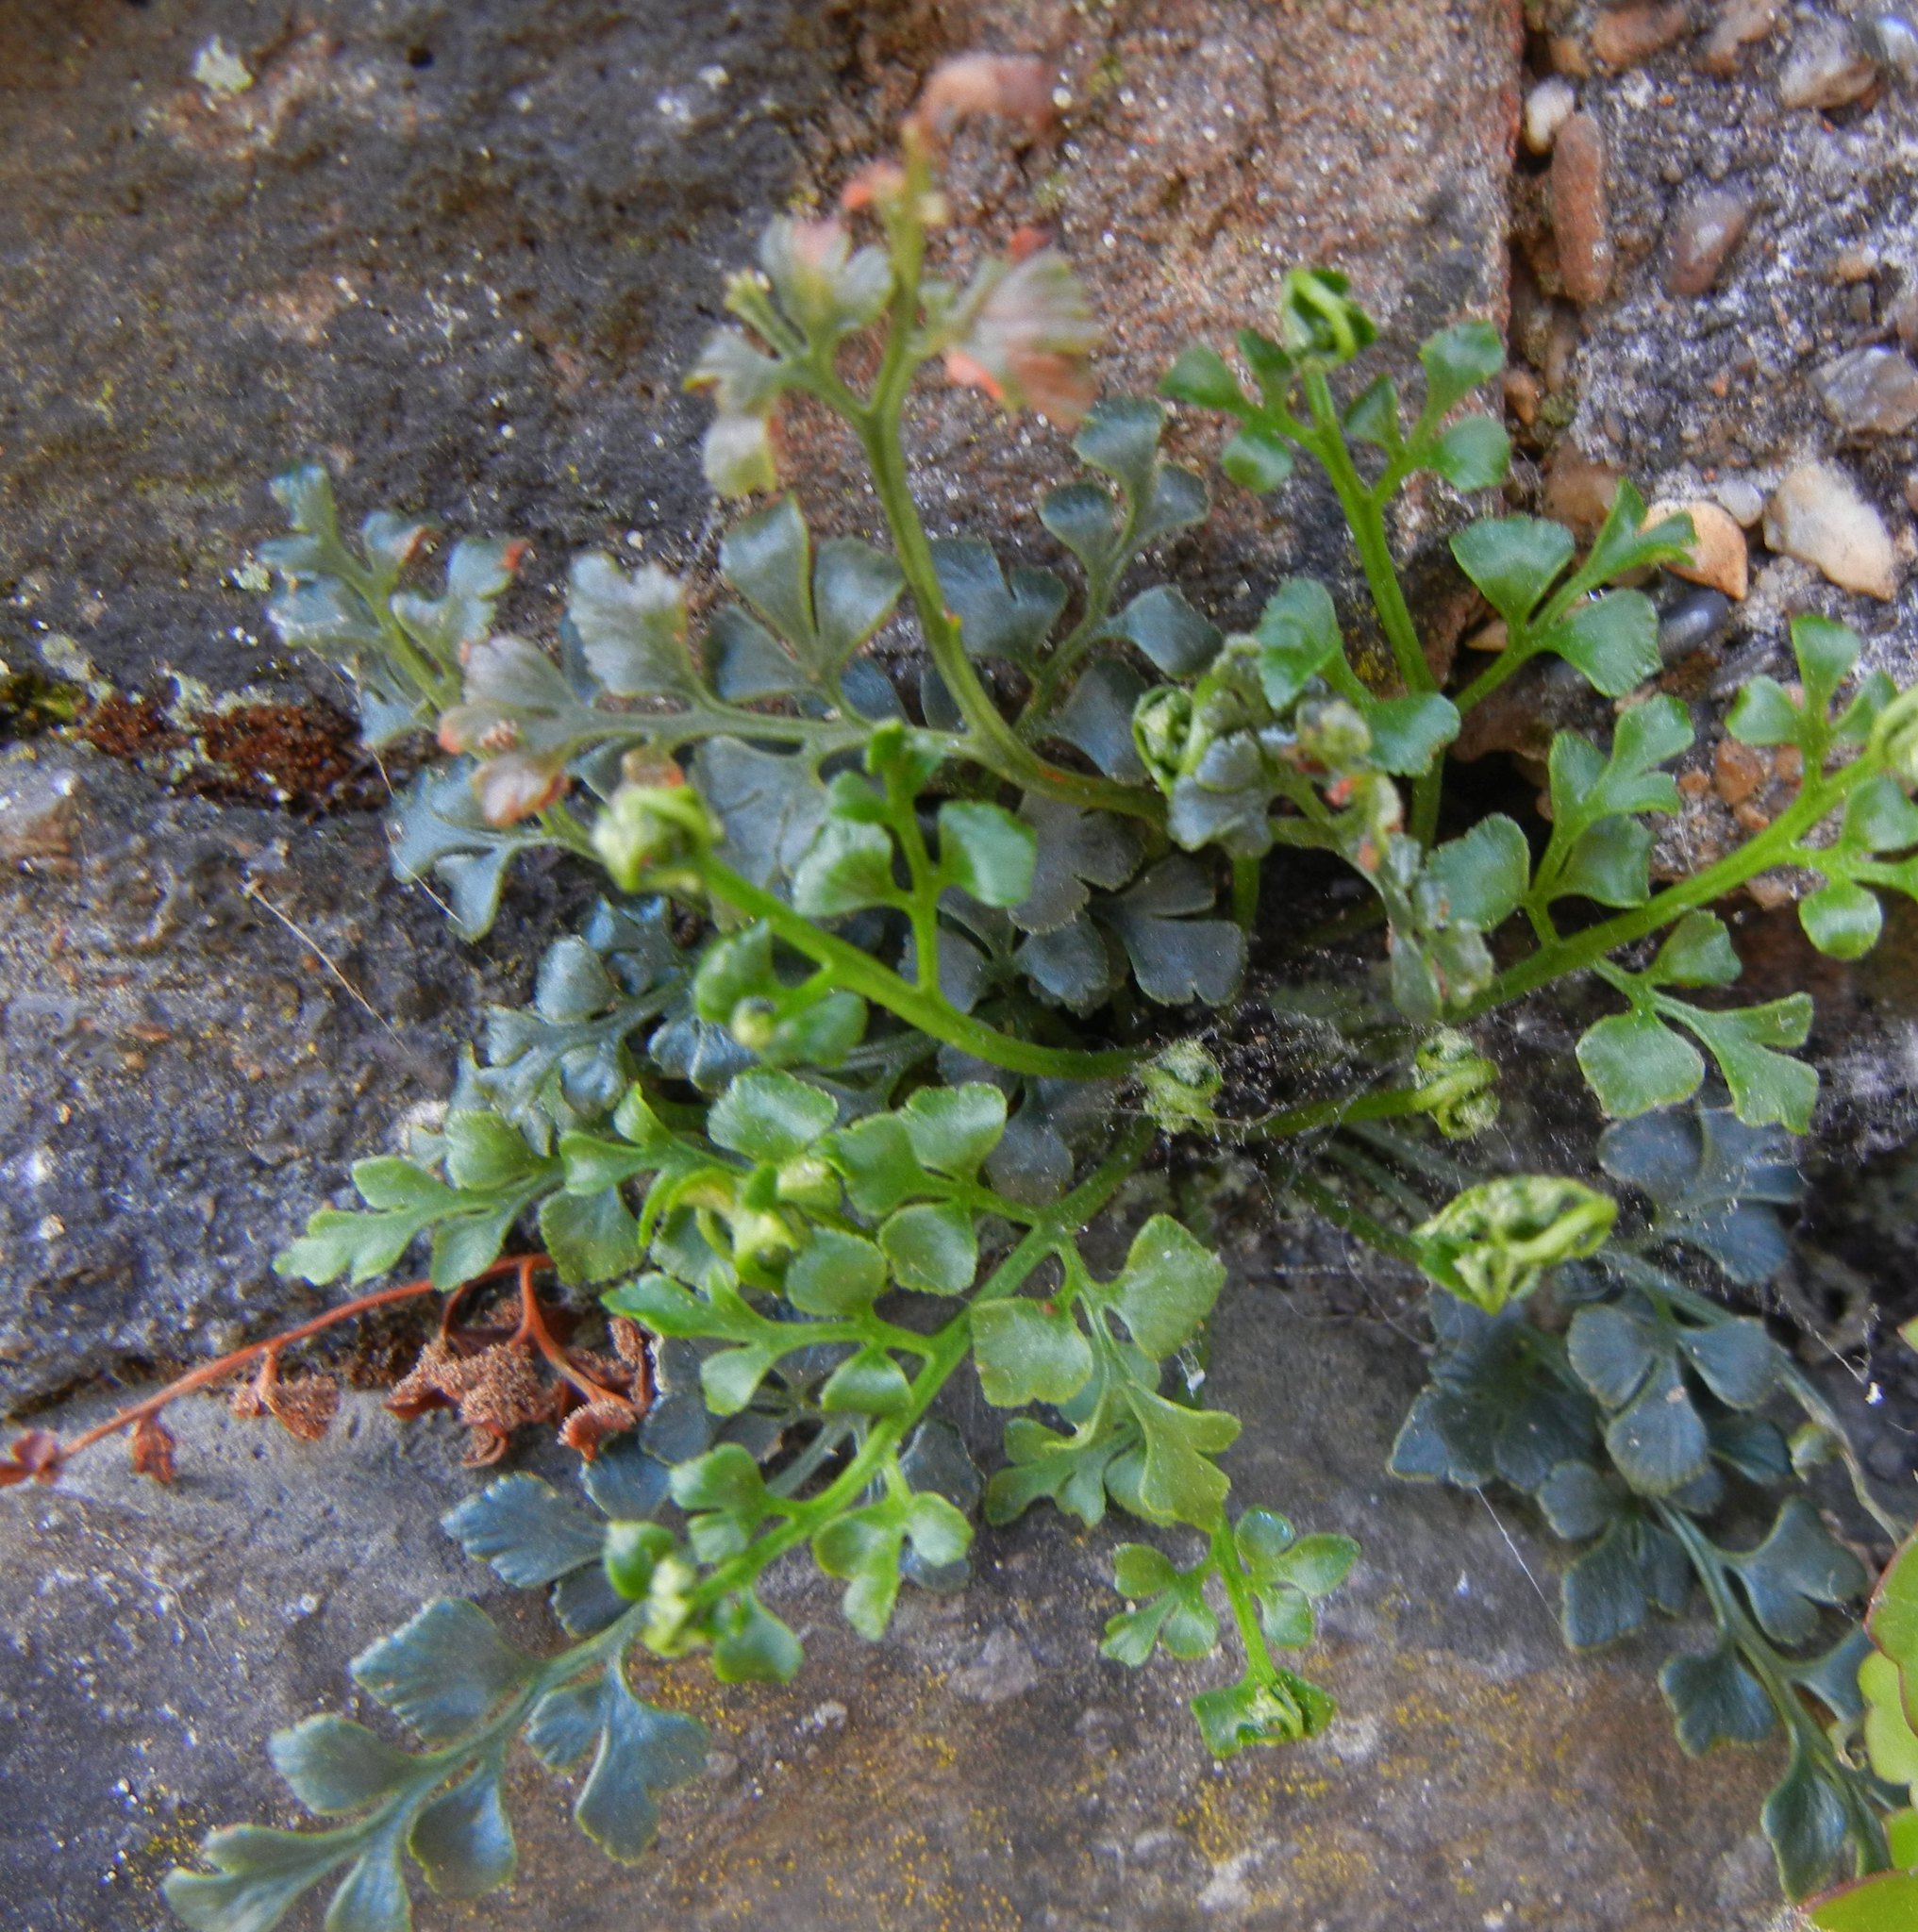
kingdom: Plantae
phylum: Tracheophyta
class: Polypodiopsida
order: Polypodiales
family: Aspleniaceae
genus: Asplenium
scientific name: Asplenium ruta-muraria
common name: Wall-rue
